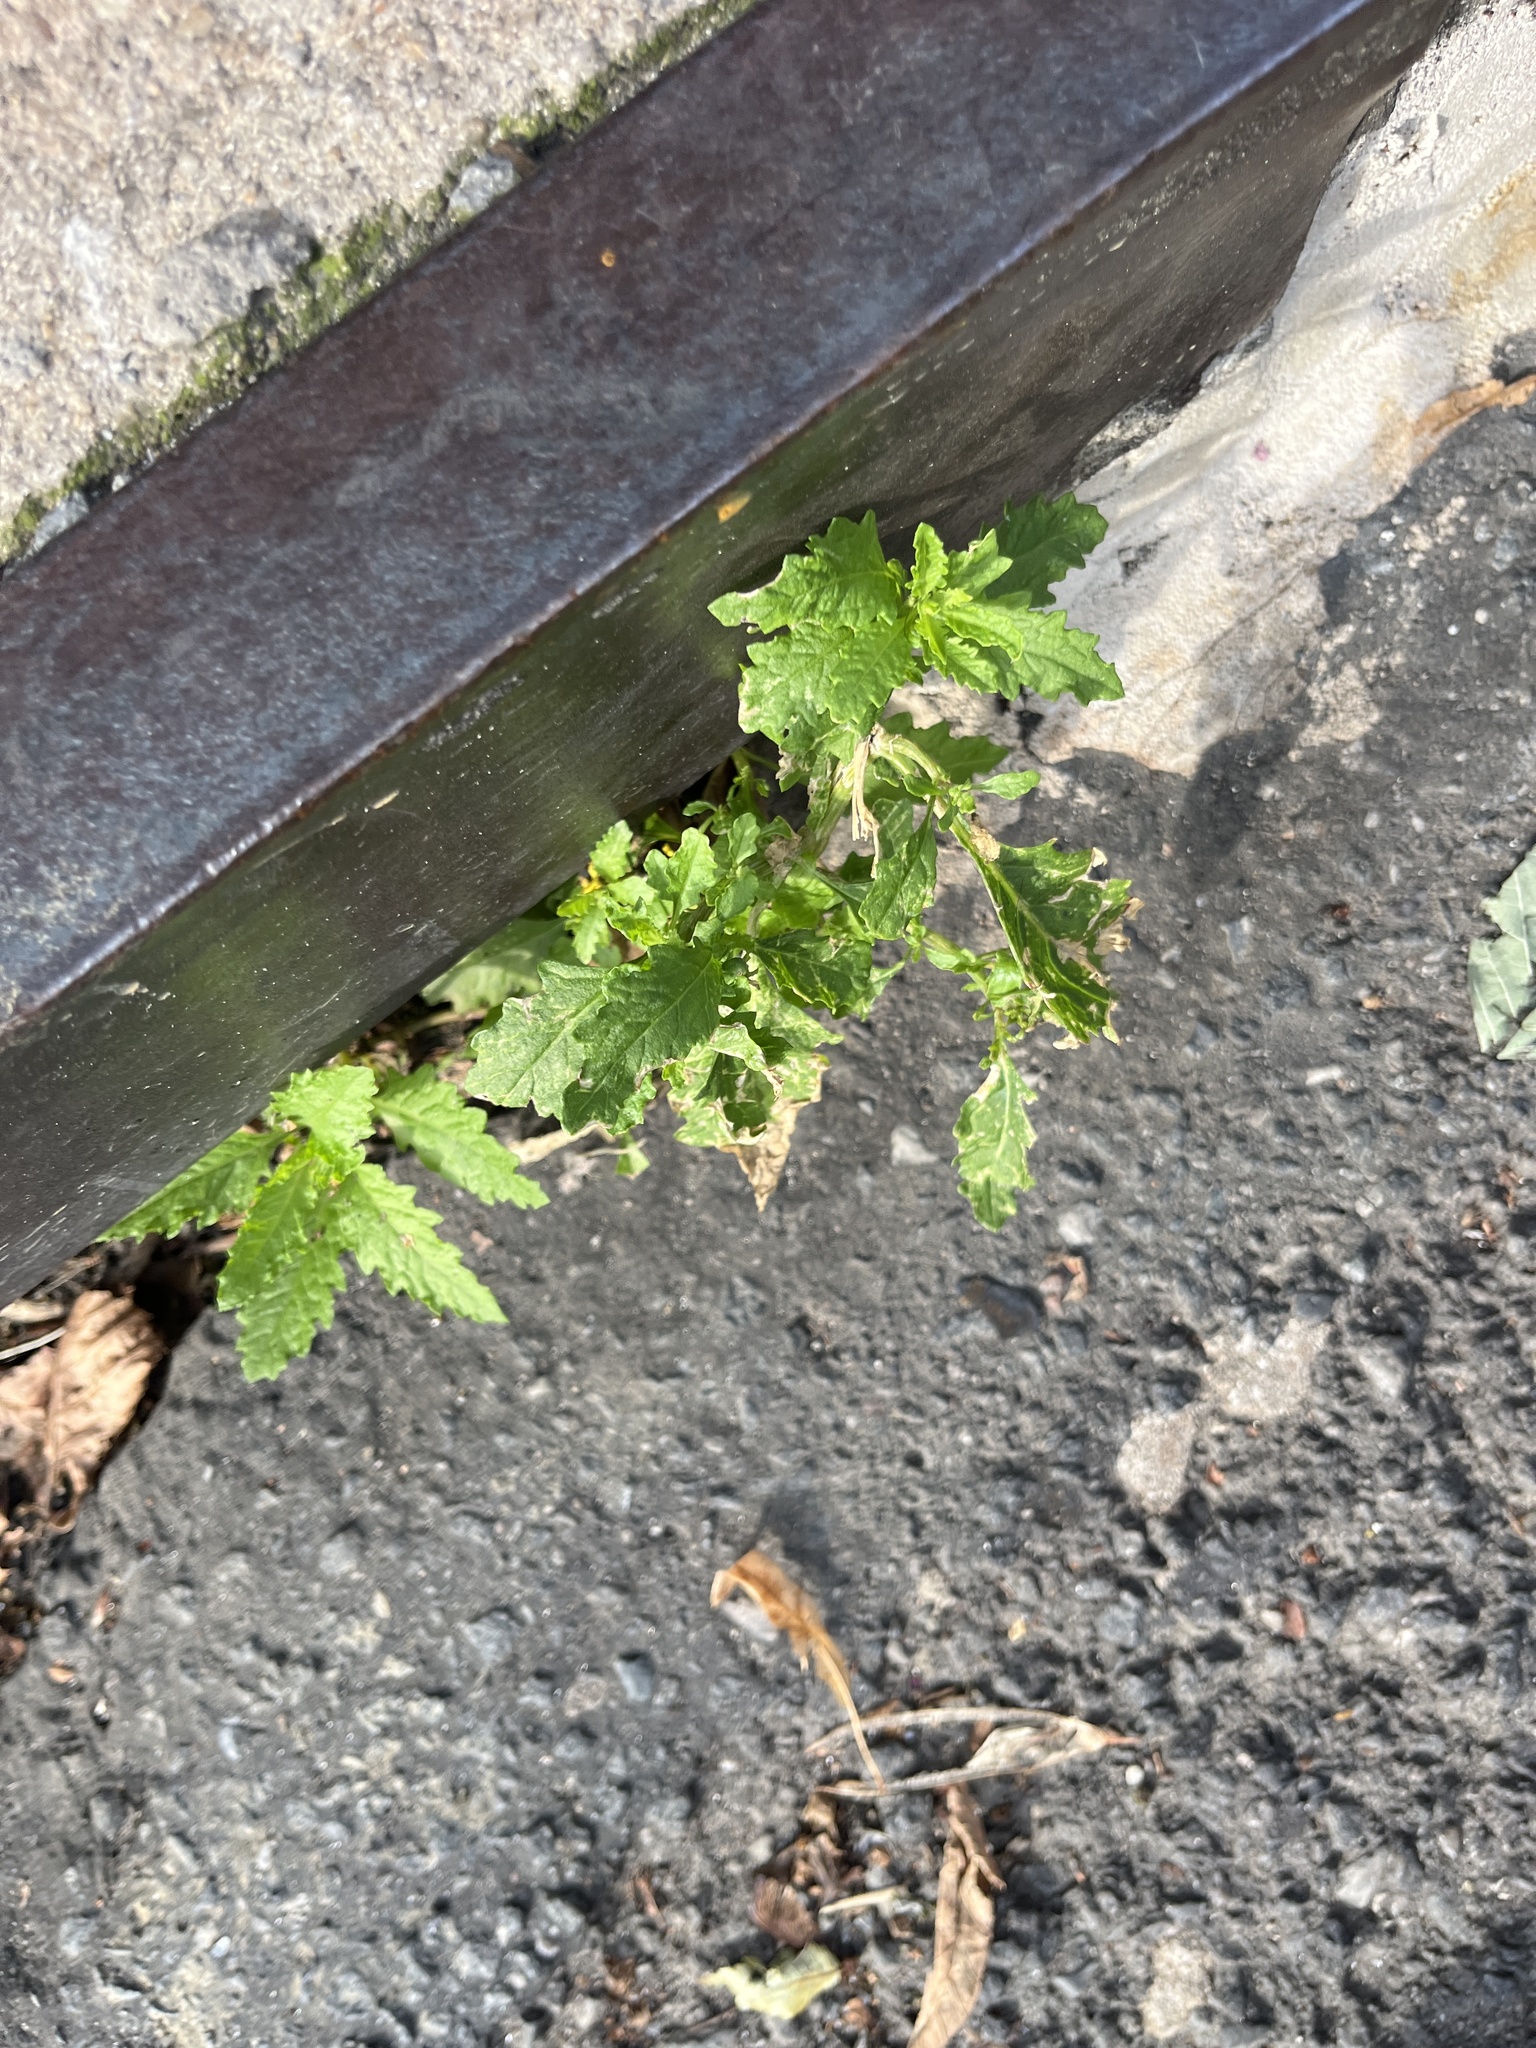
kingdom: Plantae
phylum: Tracheophyta
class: Magnoliopsida
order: Caryophyllales
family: Amaranthaceae
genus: Dysphania
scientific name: Dysphania ambrosioides
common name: Wormseed
